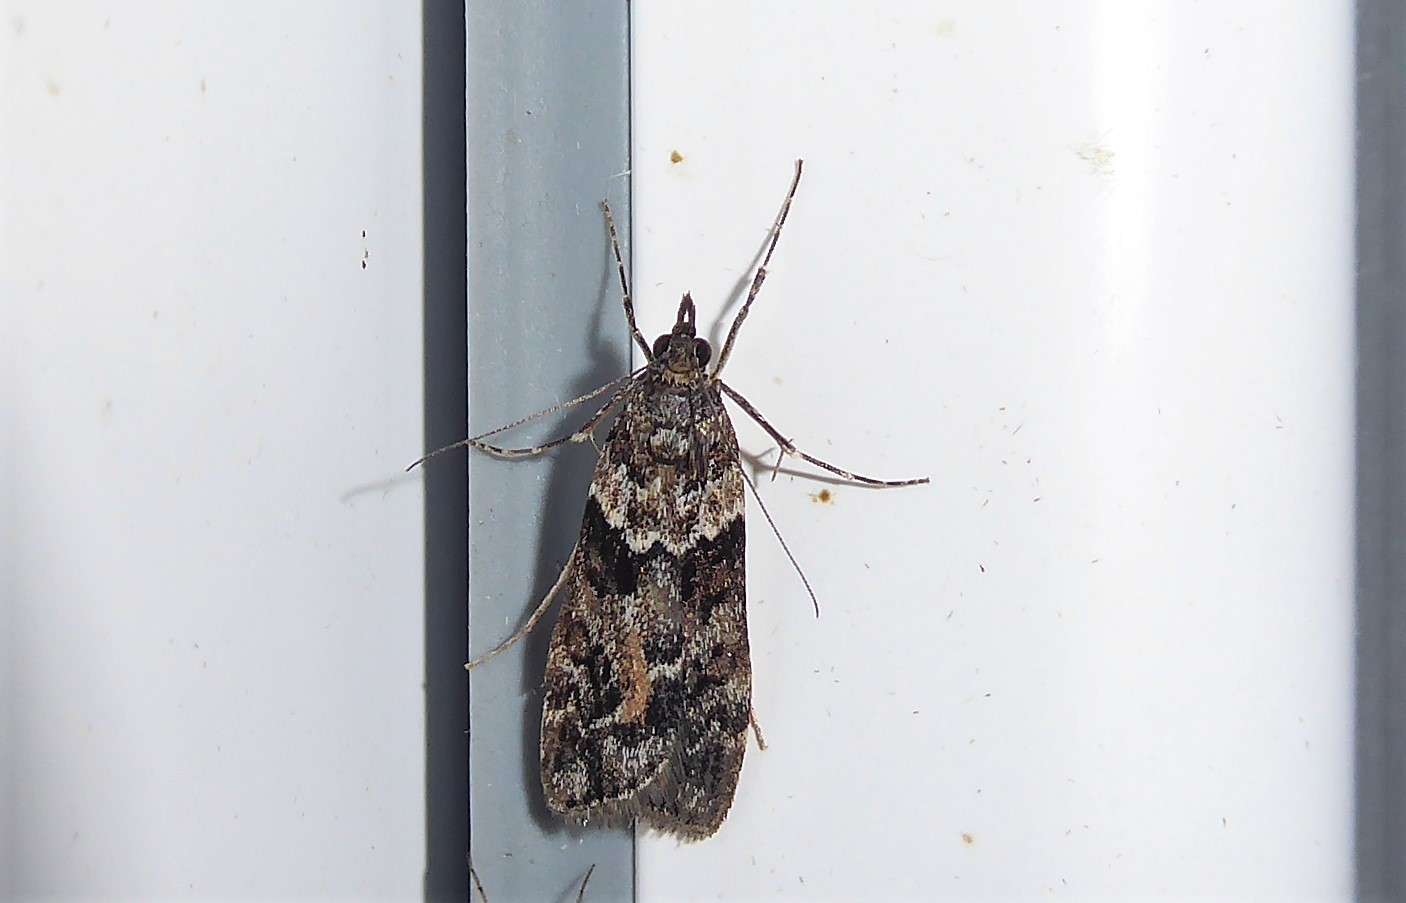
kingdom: Animalia
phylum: Arthropoda
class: Insecta
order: Lepidoptera
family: Crambidae
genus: Eudonia
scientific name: Eudonia submarginalis
